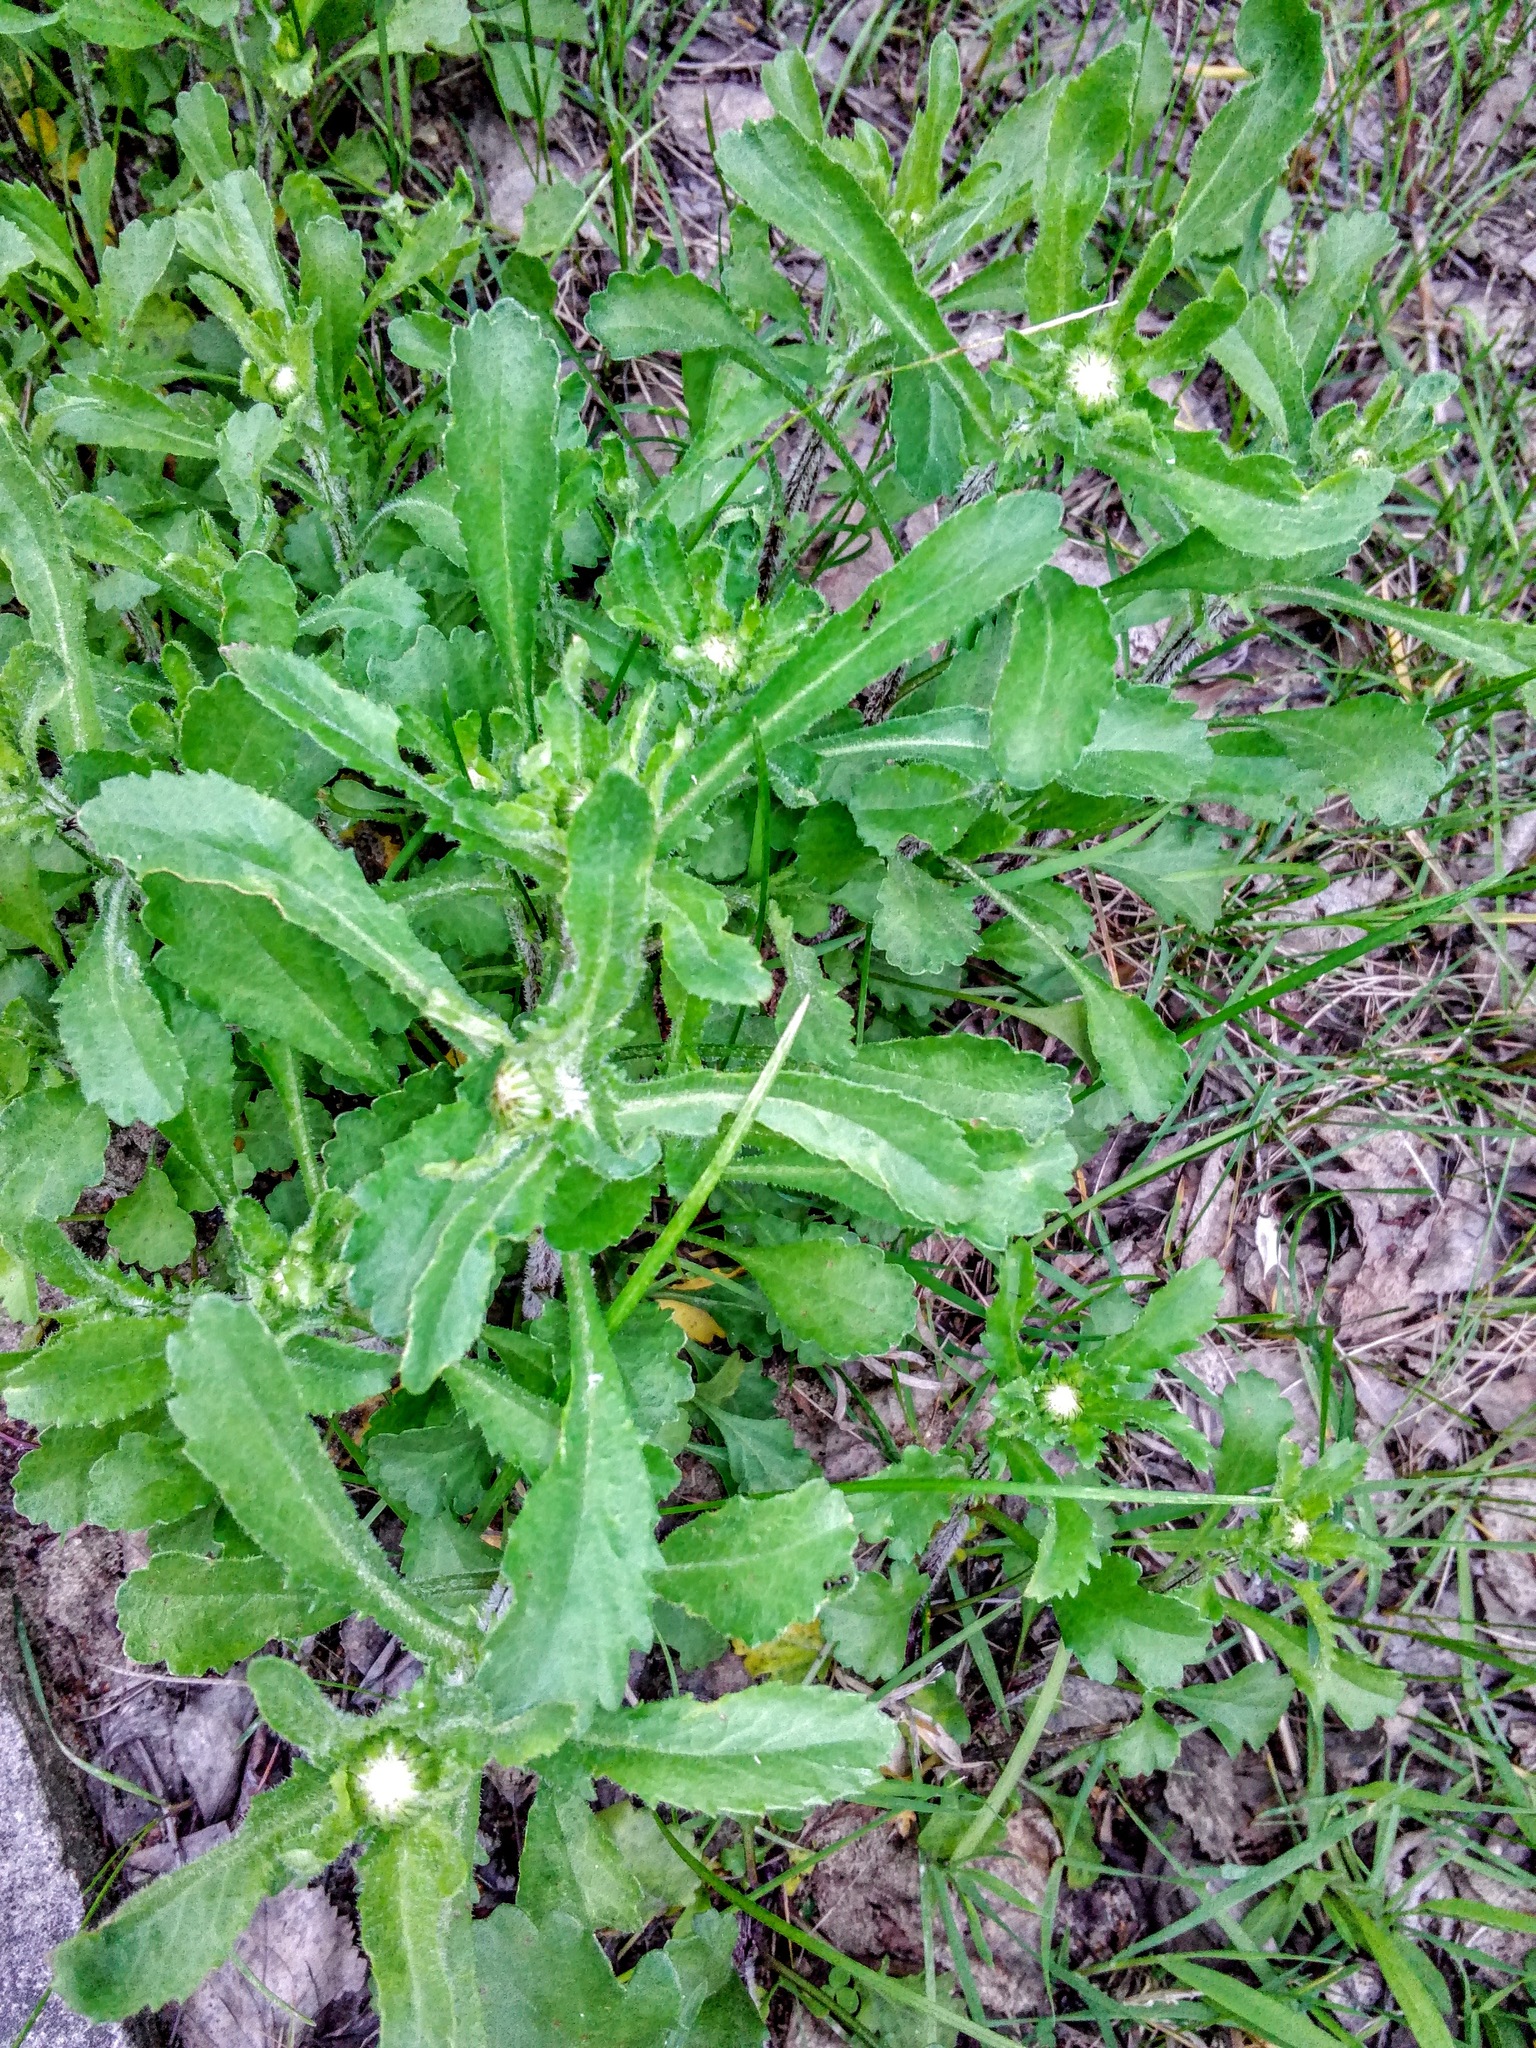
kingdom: Plantae
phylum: Tracheophyta
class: Magnoliopsida
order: Asterales
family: Asteraceae
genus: Leucanthemum
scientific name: Leucanthemum ircutianum
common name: Daisy
